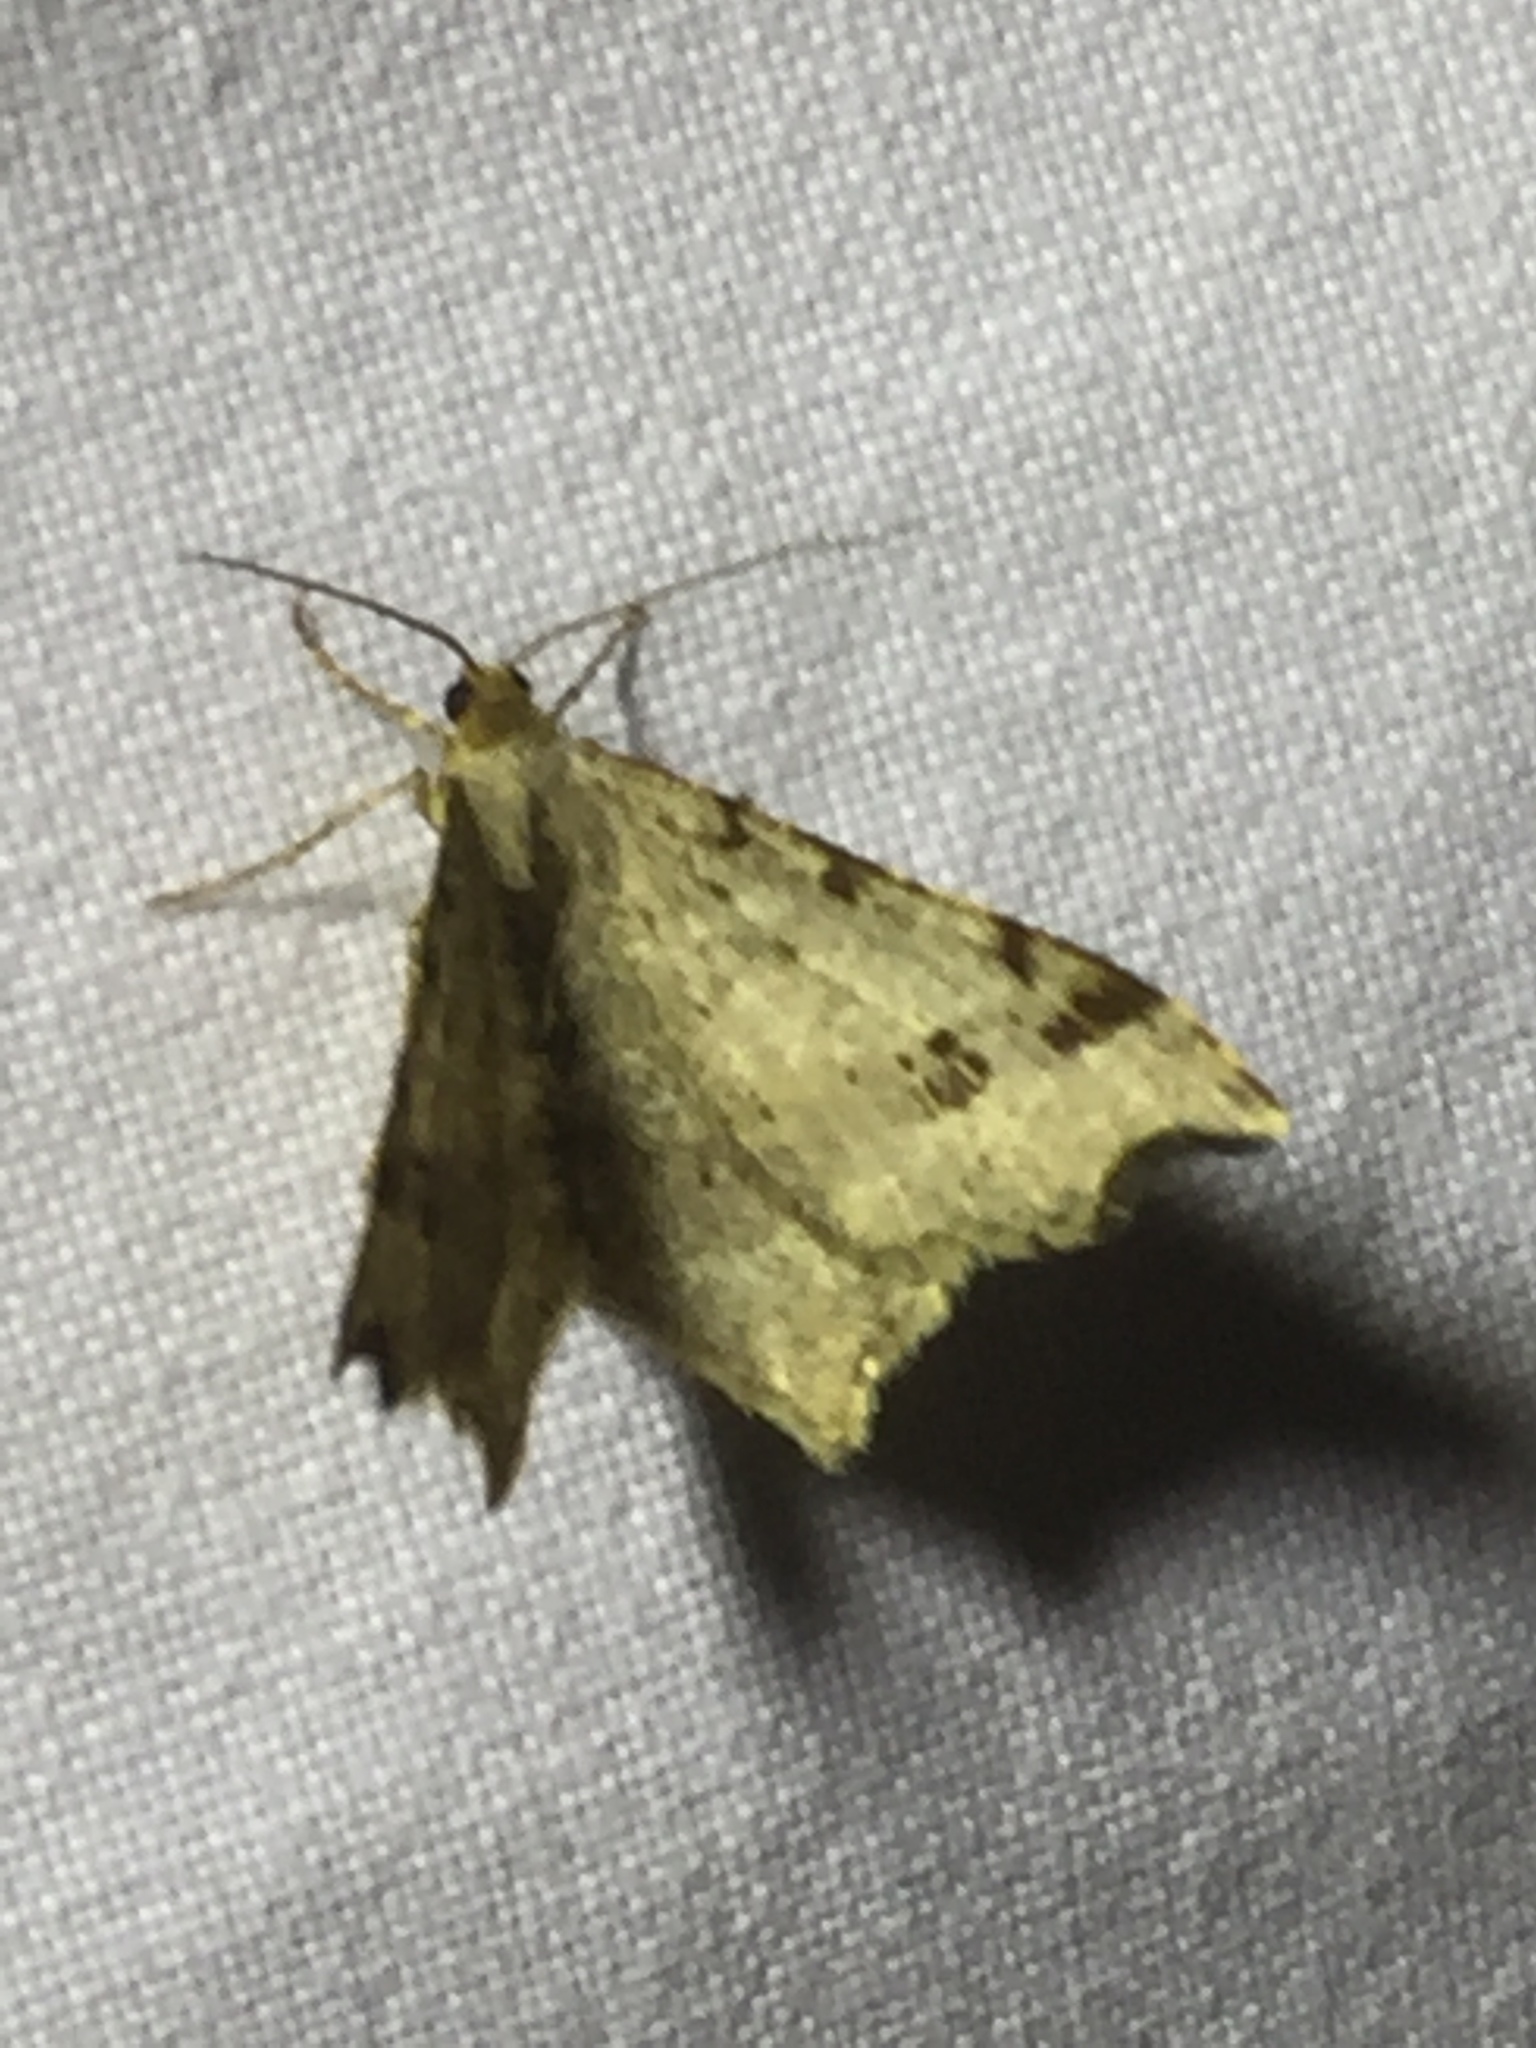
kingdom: Animalia
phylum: Arthropoda
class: Insecta
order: Lepidoptera
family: Geometridae
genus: Macaria
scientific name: Macaria alternata
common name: Sharp-angled peacock
